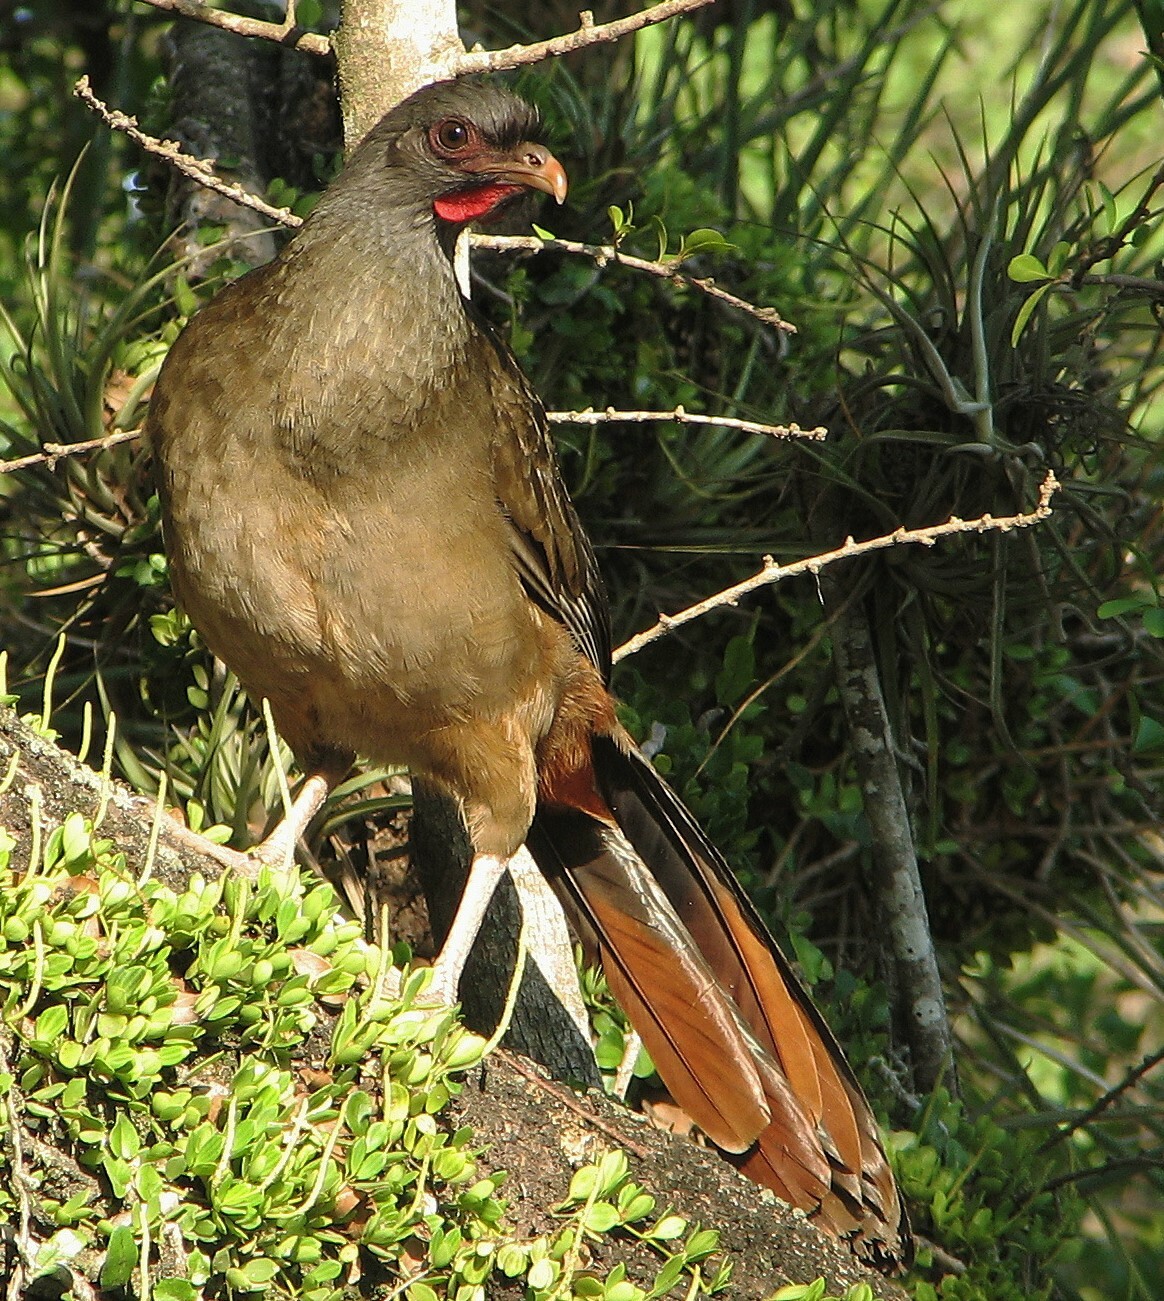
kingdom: Animalia
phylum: Chordata
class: Aves
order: Galliformes
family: Cracidae
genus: Ortalis
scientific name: Ortalis canicollis
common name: Chaco chachalaca
